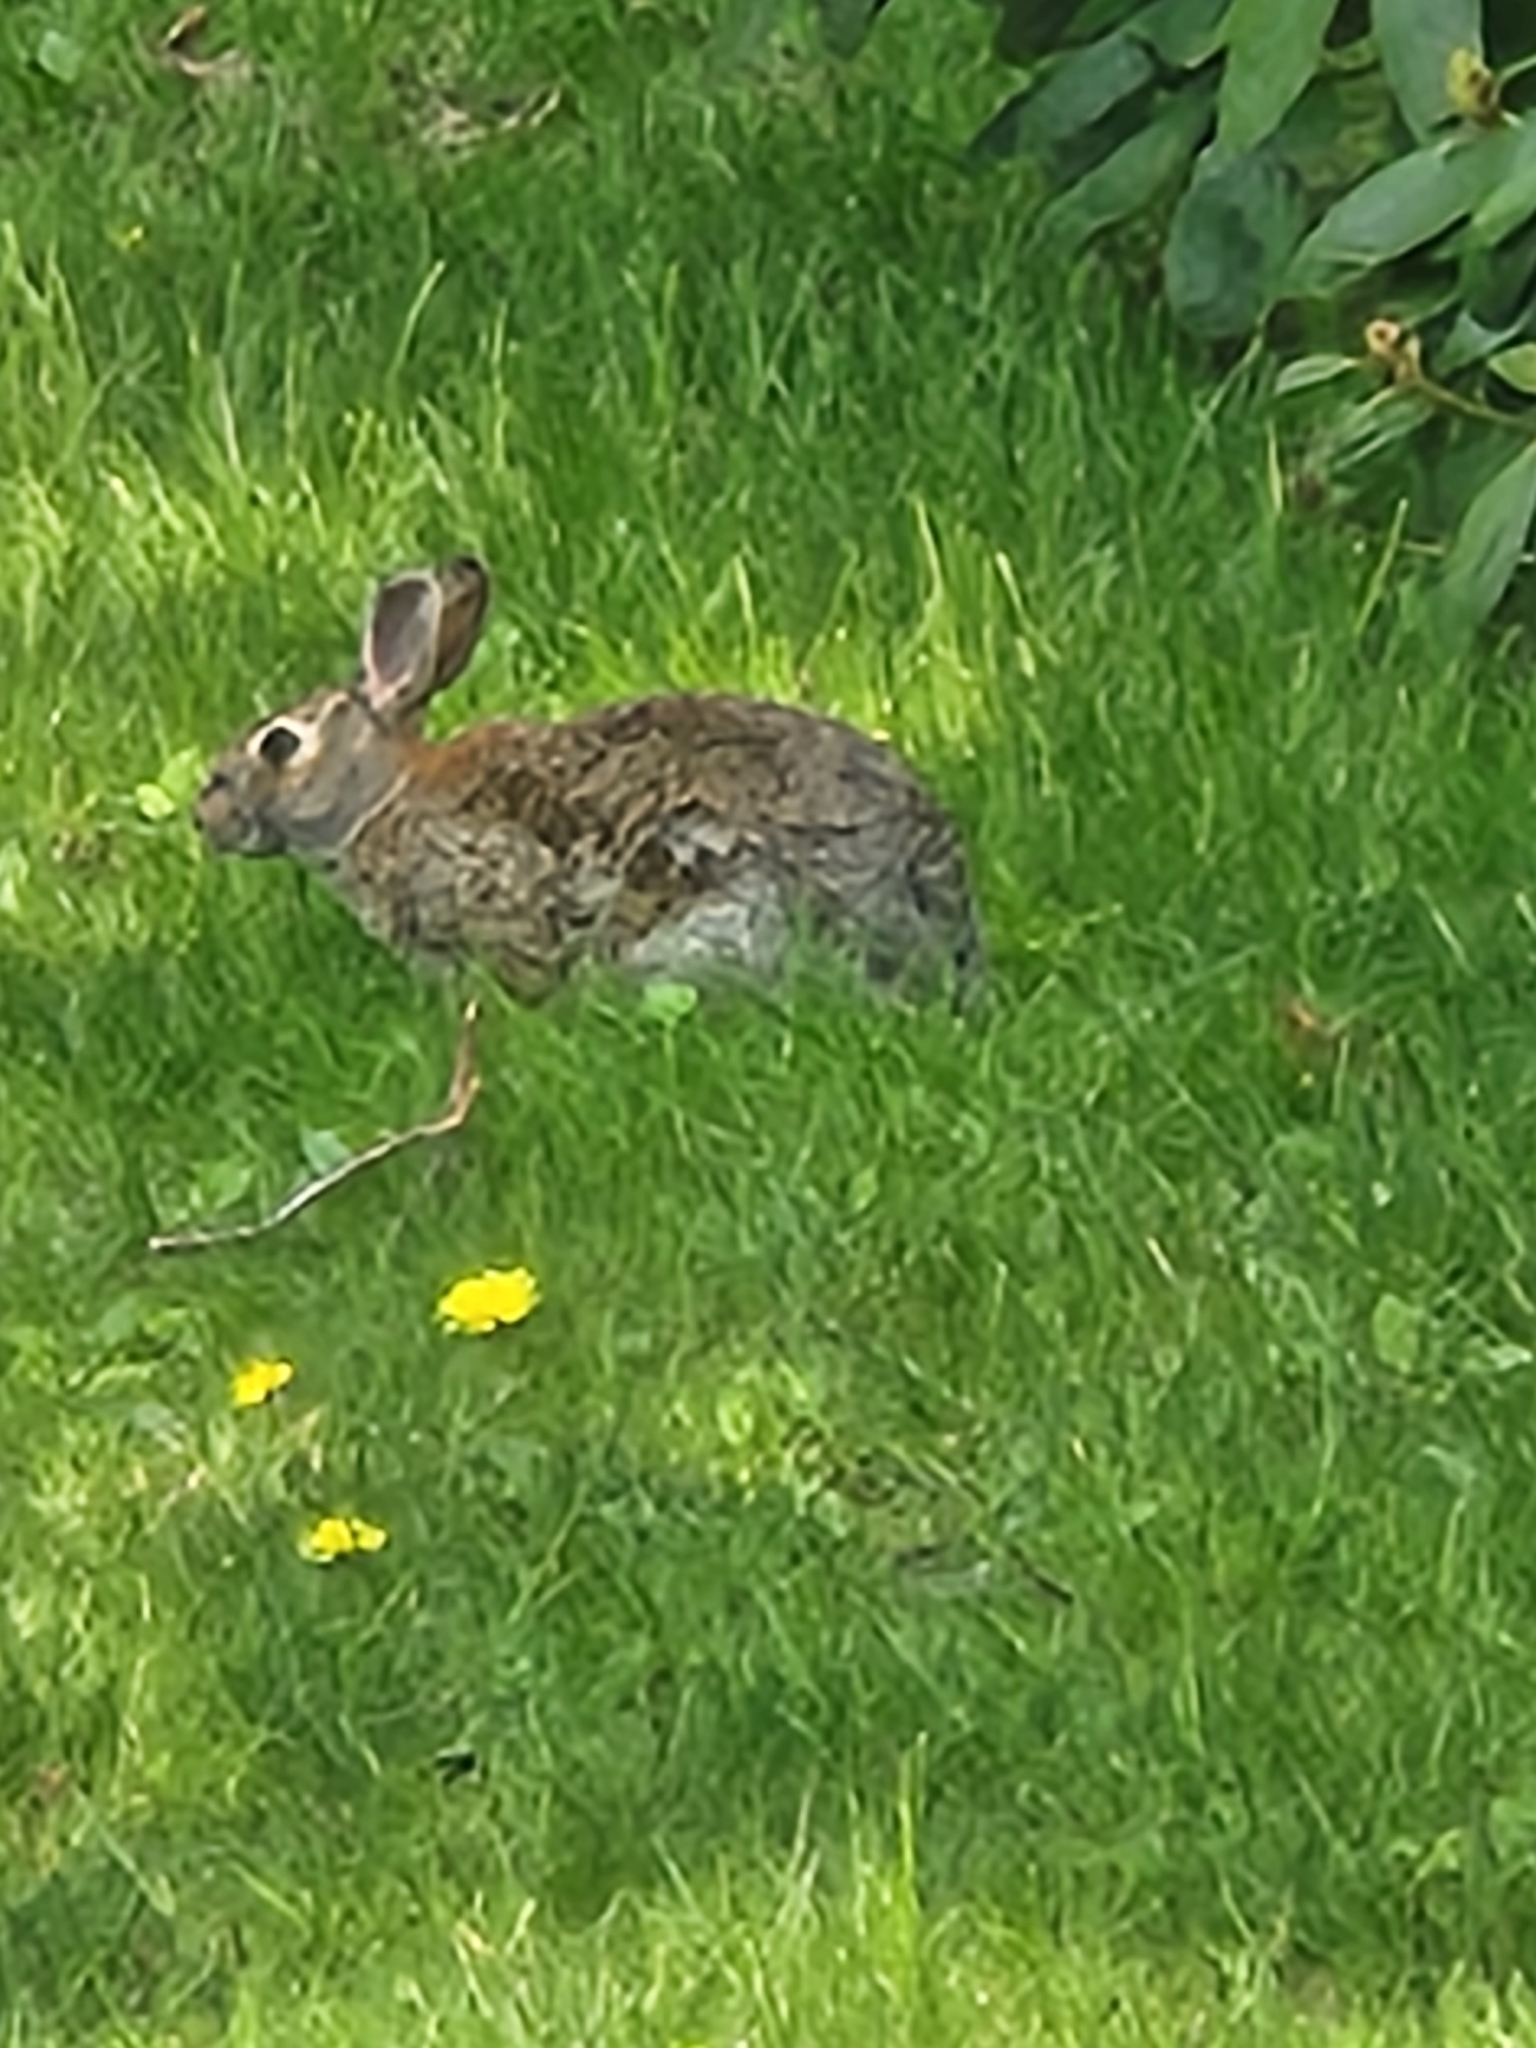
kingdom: Animalia
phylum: Chordata
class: Mammalia
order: Lagomorpha
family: Leporidae
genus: Sylvilagus
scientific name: Sylvilagus floridanus
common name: Eastern cottontail
